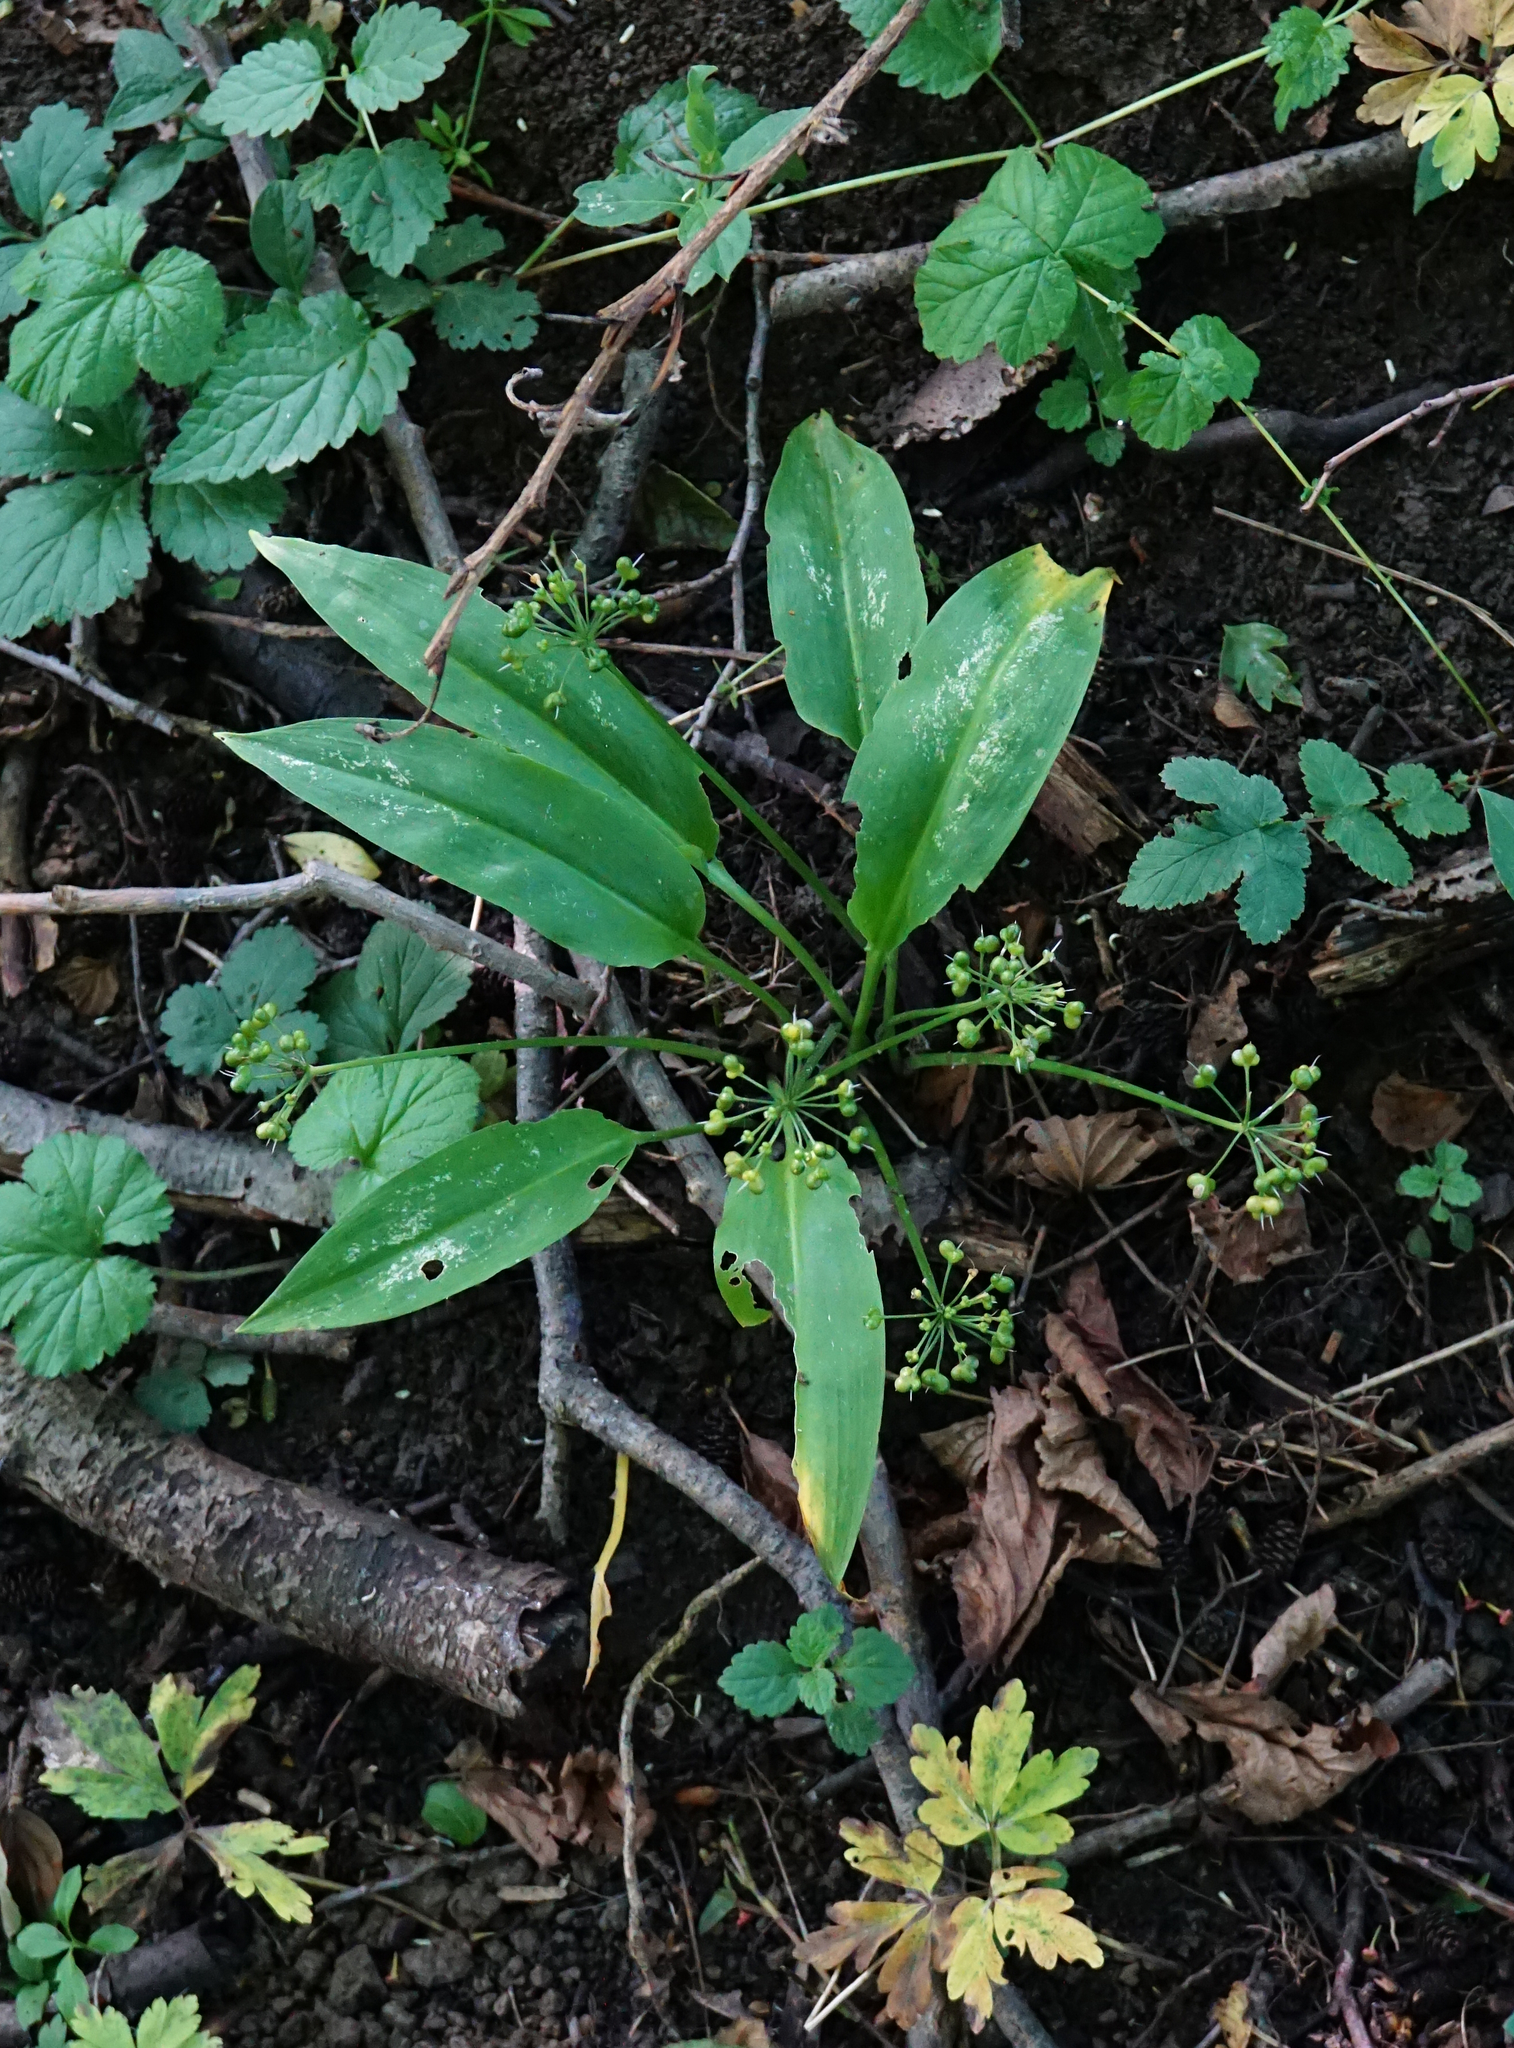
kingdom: Plantae
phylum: Tracheophyta
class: Liliopsida
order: Asparagales
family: Amaryllidaceae
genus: Allium
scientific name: Allium ursinum
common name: Ramsons
